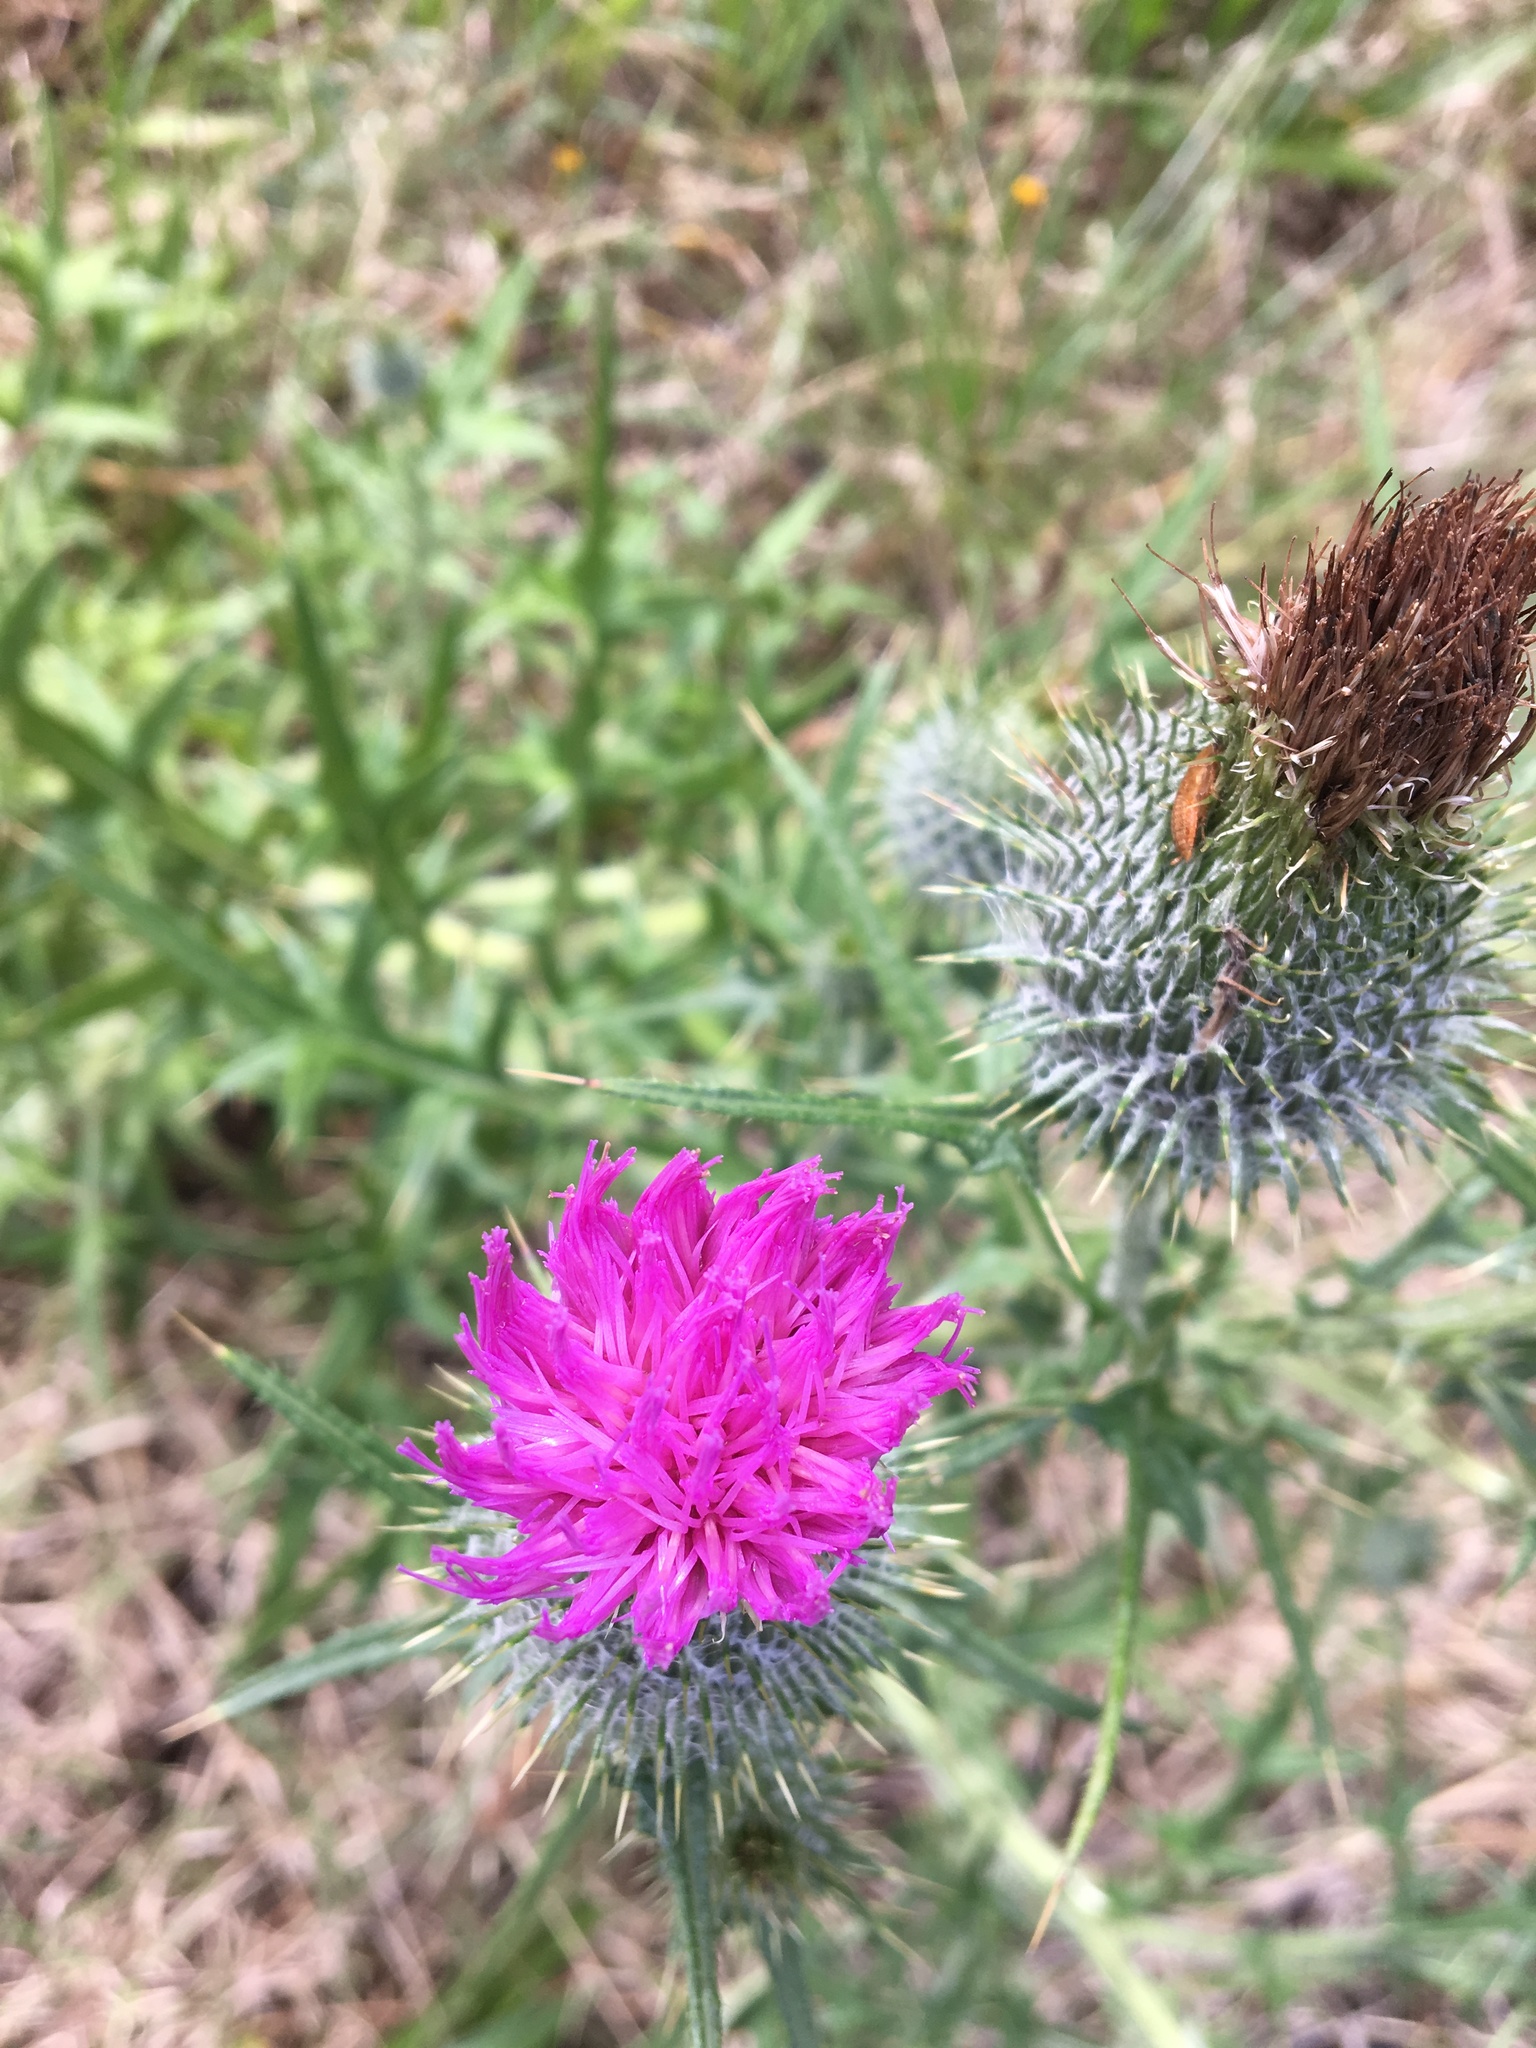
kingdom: Plantae
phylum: Tracheophyta
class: Magnoliopsida
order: Asterales
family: Asteraceae
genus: Cirsium
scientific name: Cirsium vulgare
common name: Bull thistle
